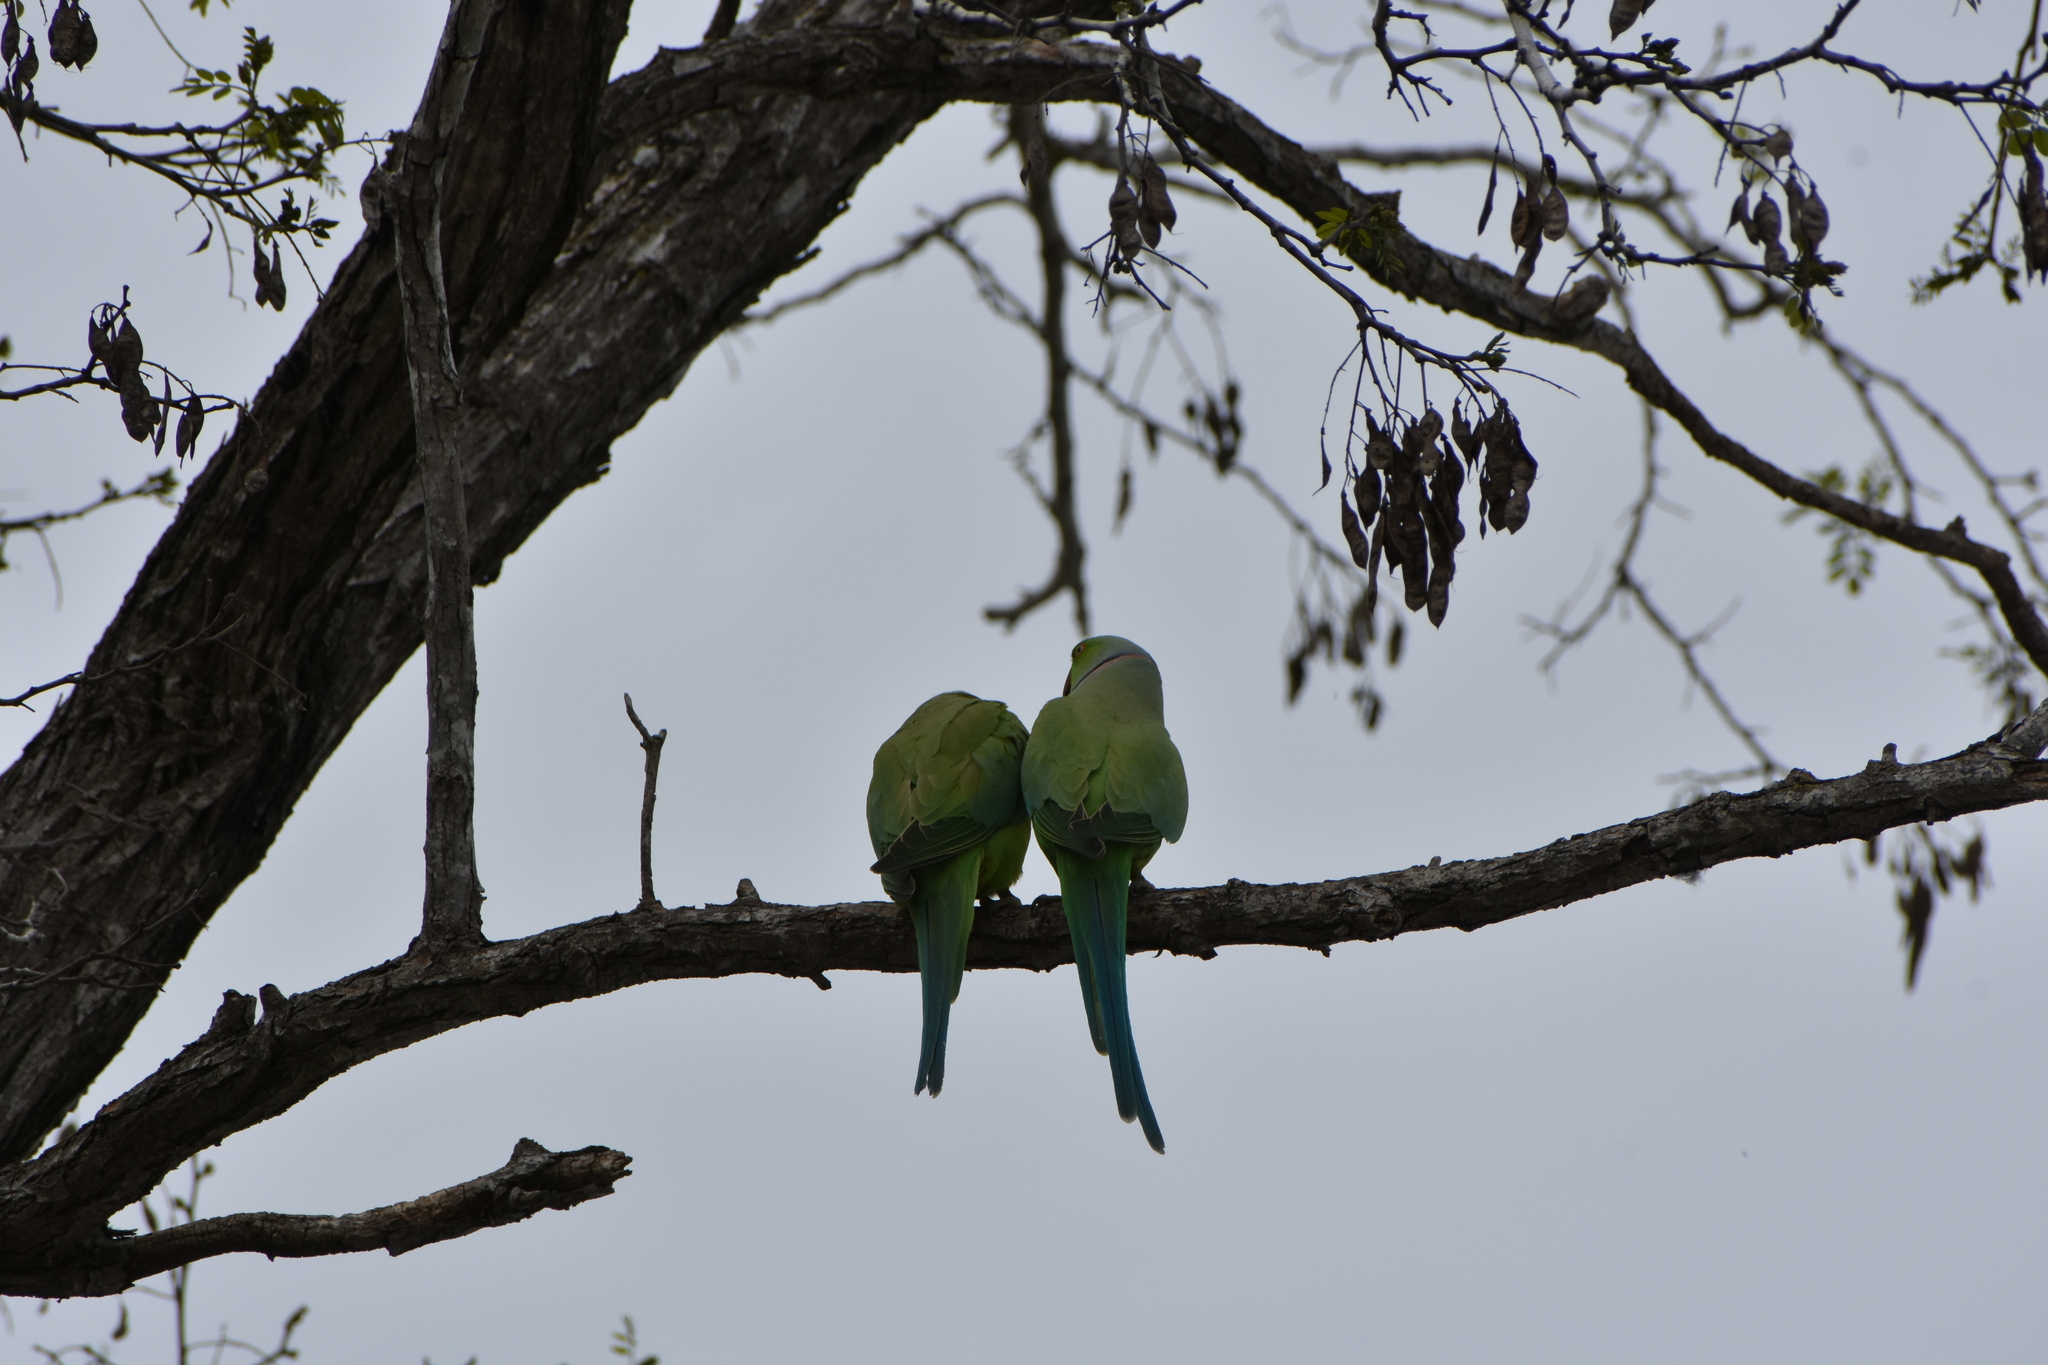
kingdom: Animalia
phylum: Chordata
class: Aves
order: Psittaciformes
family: Psittacidae
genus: Psittacula
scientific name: Psittacula krameri
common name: Rose-ringed parakeet
